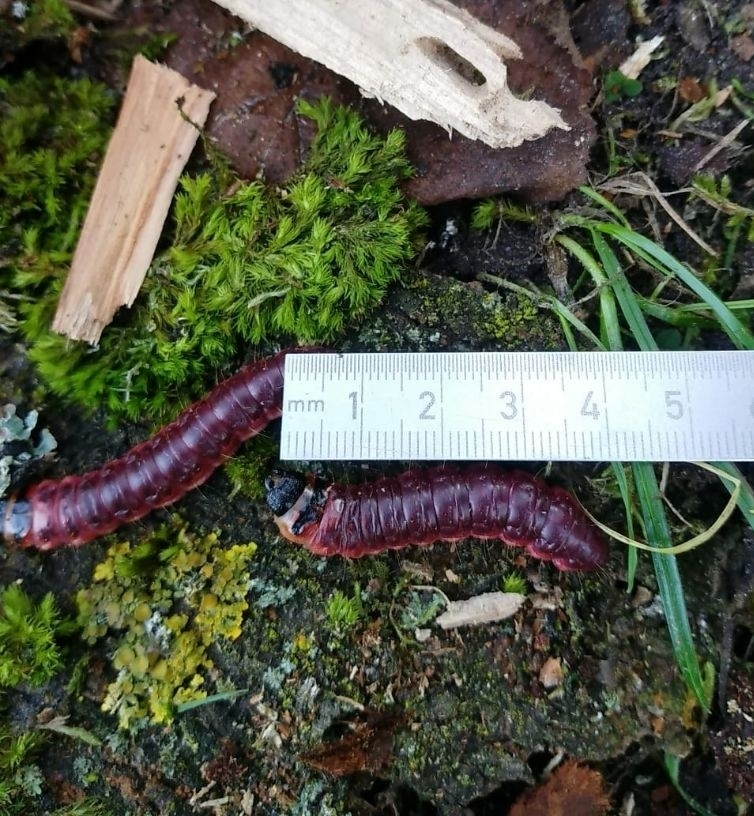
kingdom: Animalia
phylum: Arthropoda
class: Insecta
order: Lepidoptera
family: Cossidae
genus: Cossus
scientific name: Cossus cossus
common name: Goat moth
